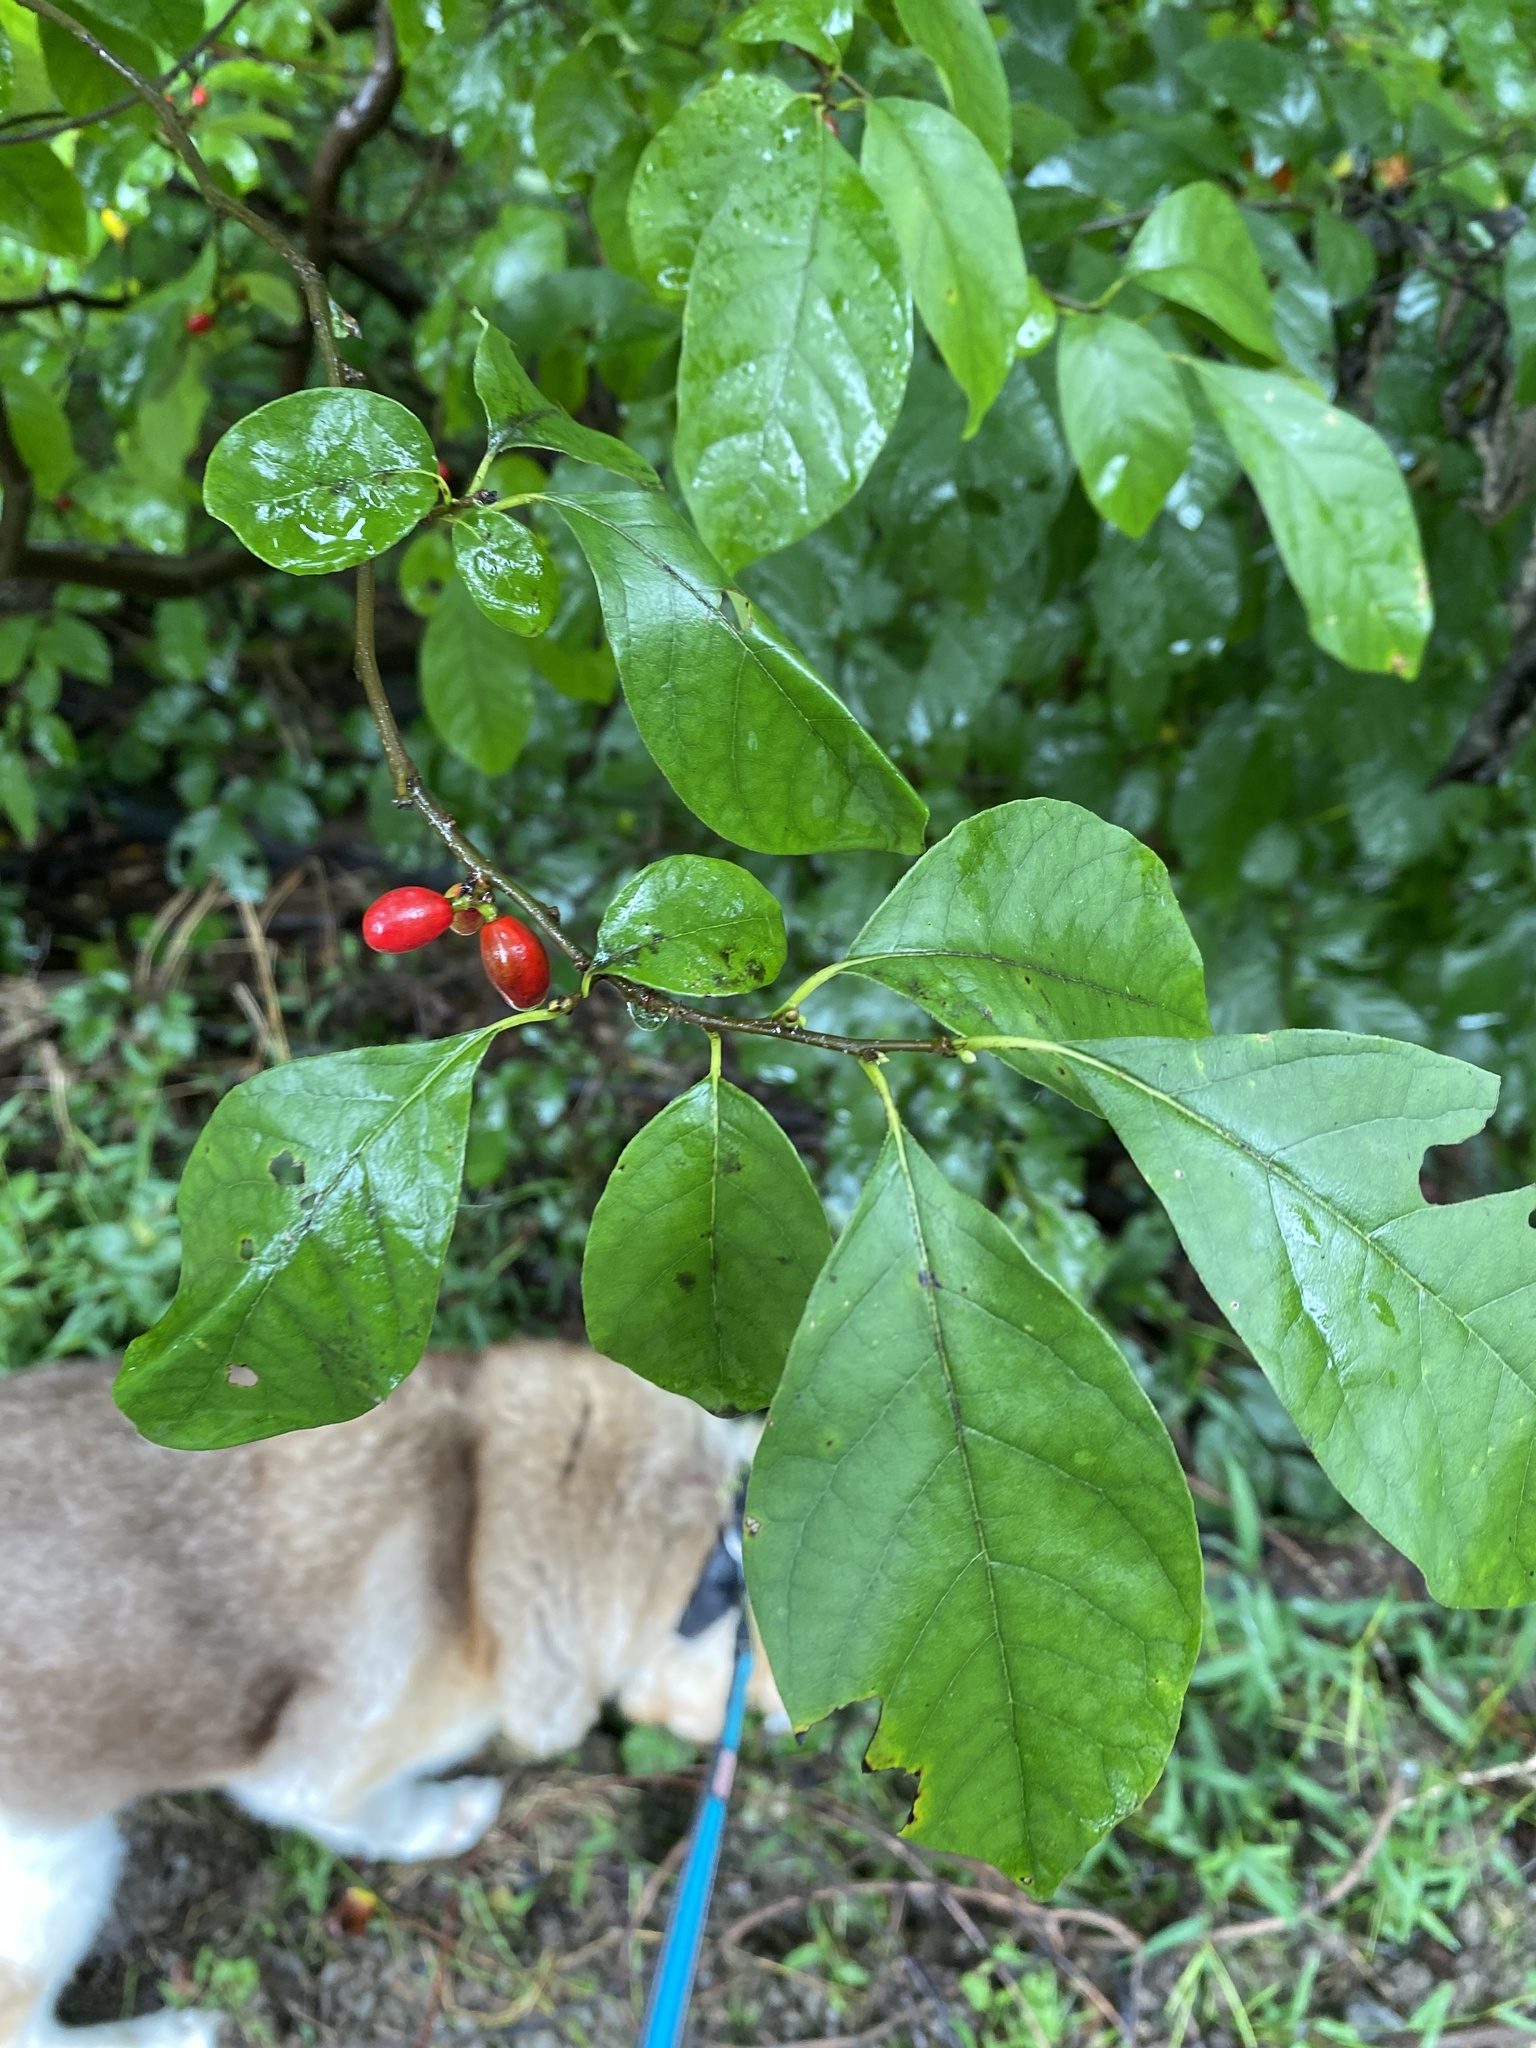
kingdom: Plantae
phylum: Tracheophyta
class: Magnoliopsida
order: Laurales
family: Lauraceae
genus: Lindera
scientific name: Lindera benzoin
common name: Spicebush
